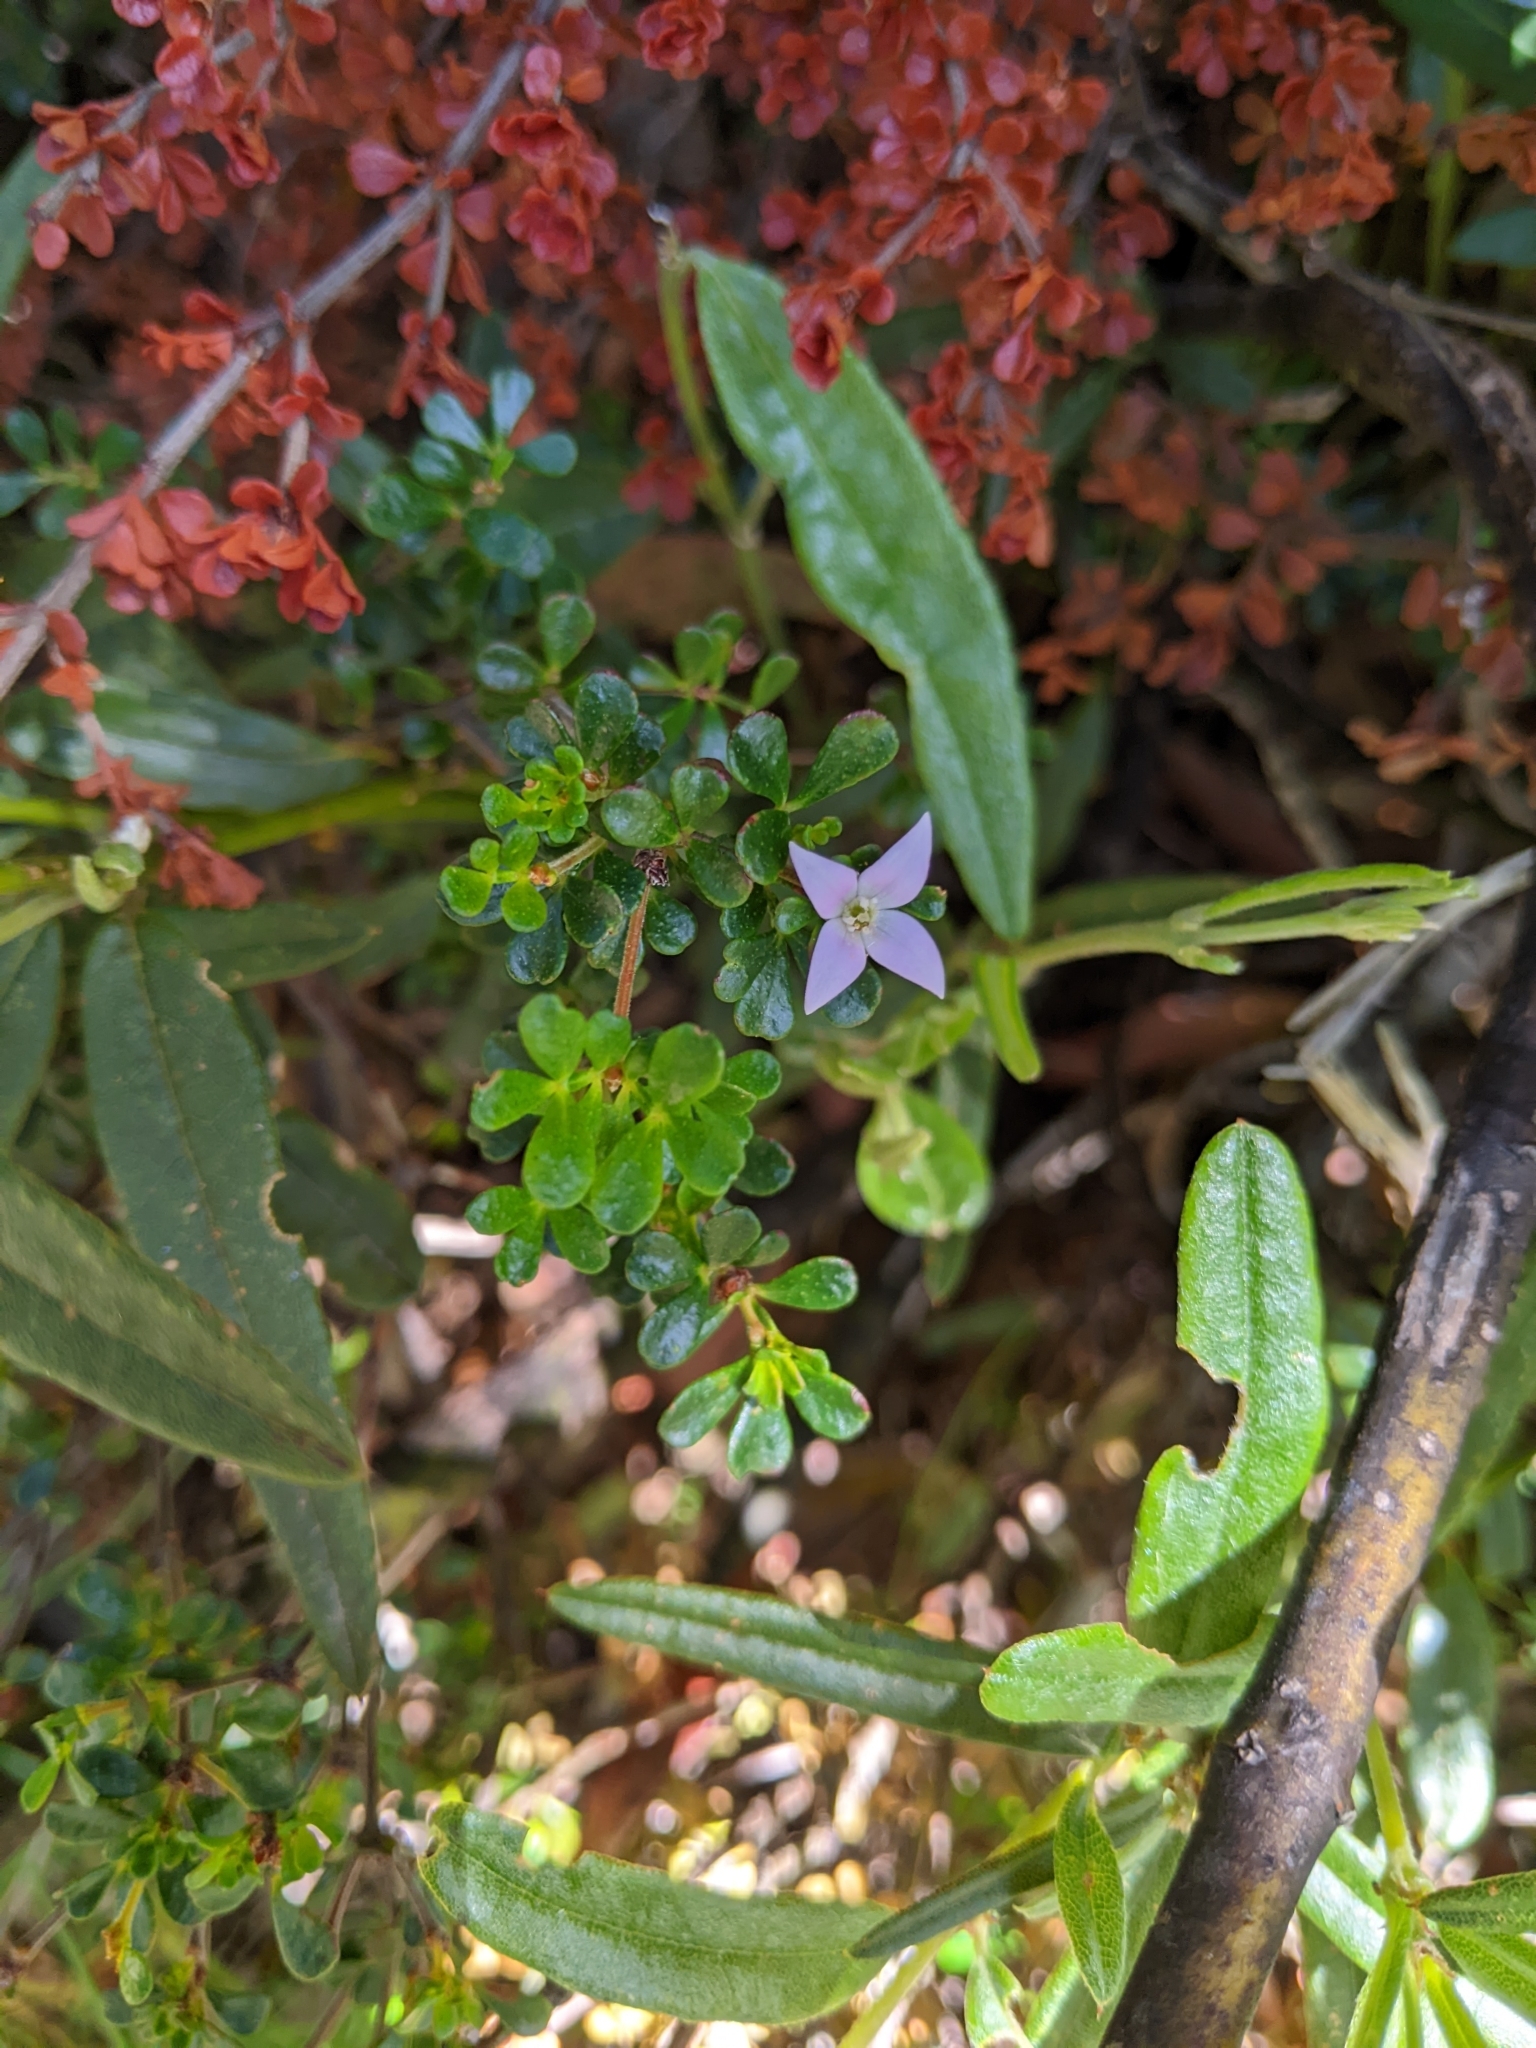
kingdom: Plantae
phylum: Tracheophyta
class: Magnoliopsida
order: Sapindales
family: Rutaceae
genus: Boronia
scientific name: Boronia algida
